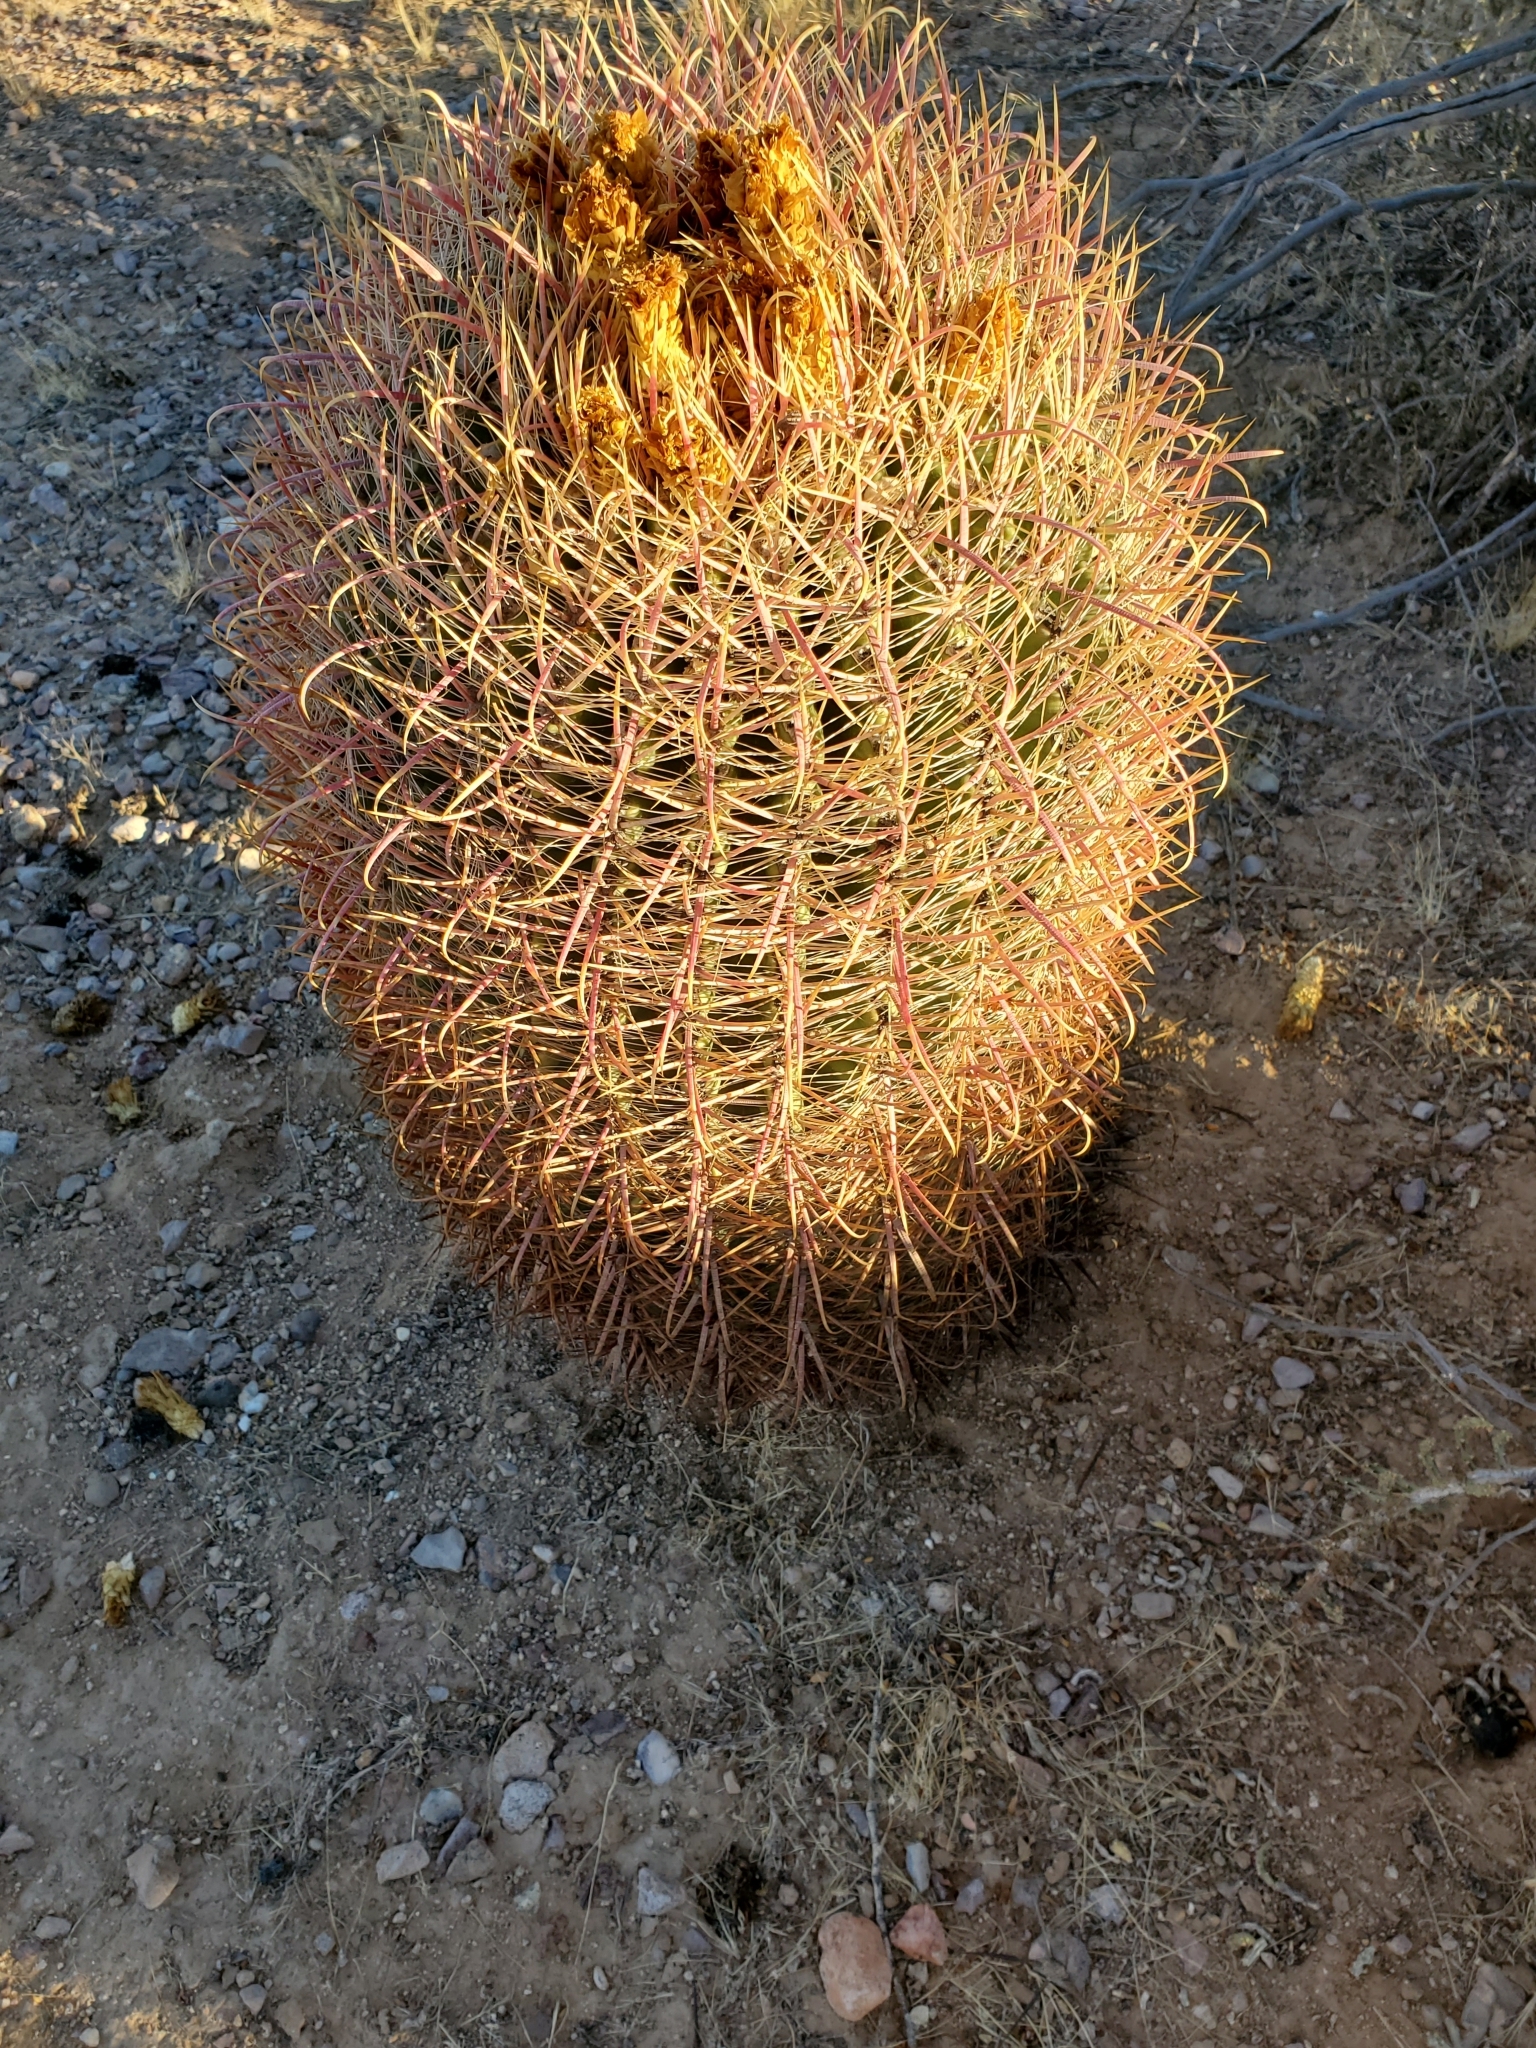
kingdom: Plantae
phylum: Tracheophyta
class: Magnoliopsida
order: Caryophyllales
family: Cactaceae
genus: Ferocactus
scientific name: Ferocactus cylindraceus
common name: California barrel cactus
